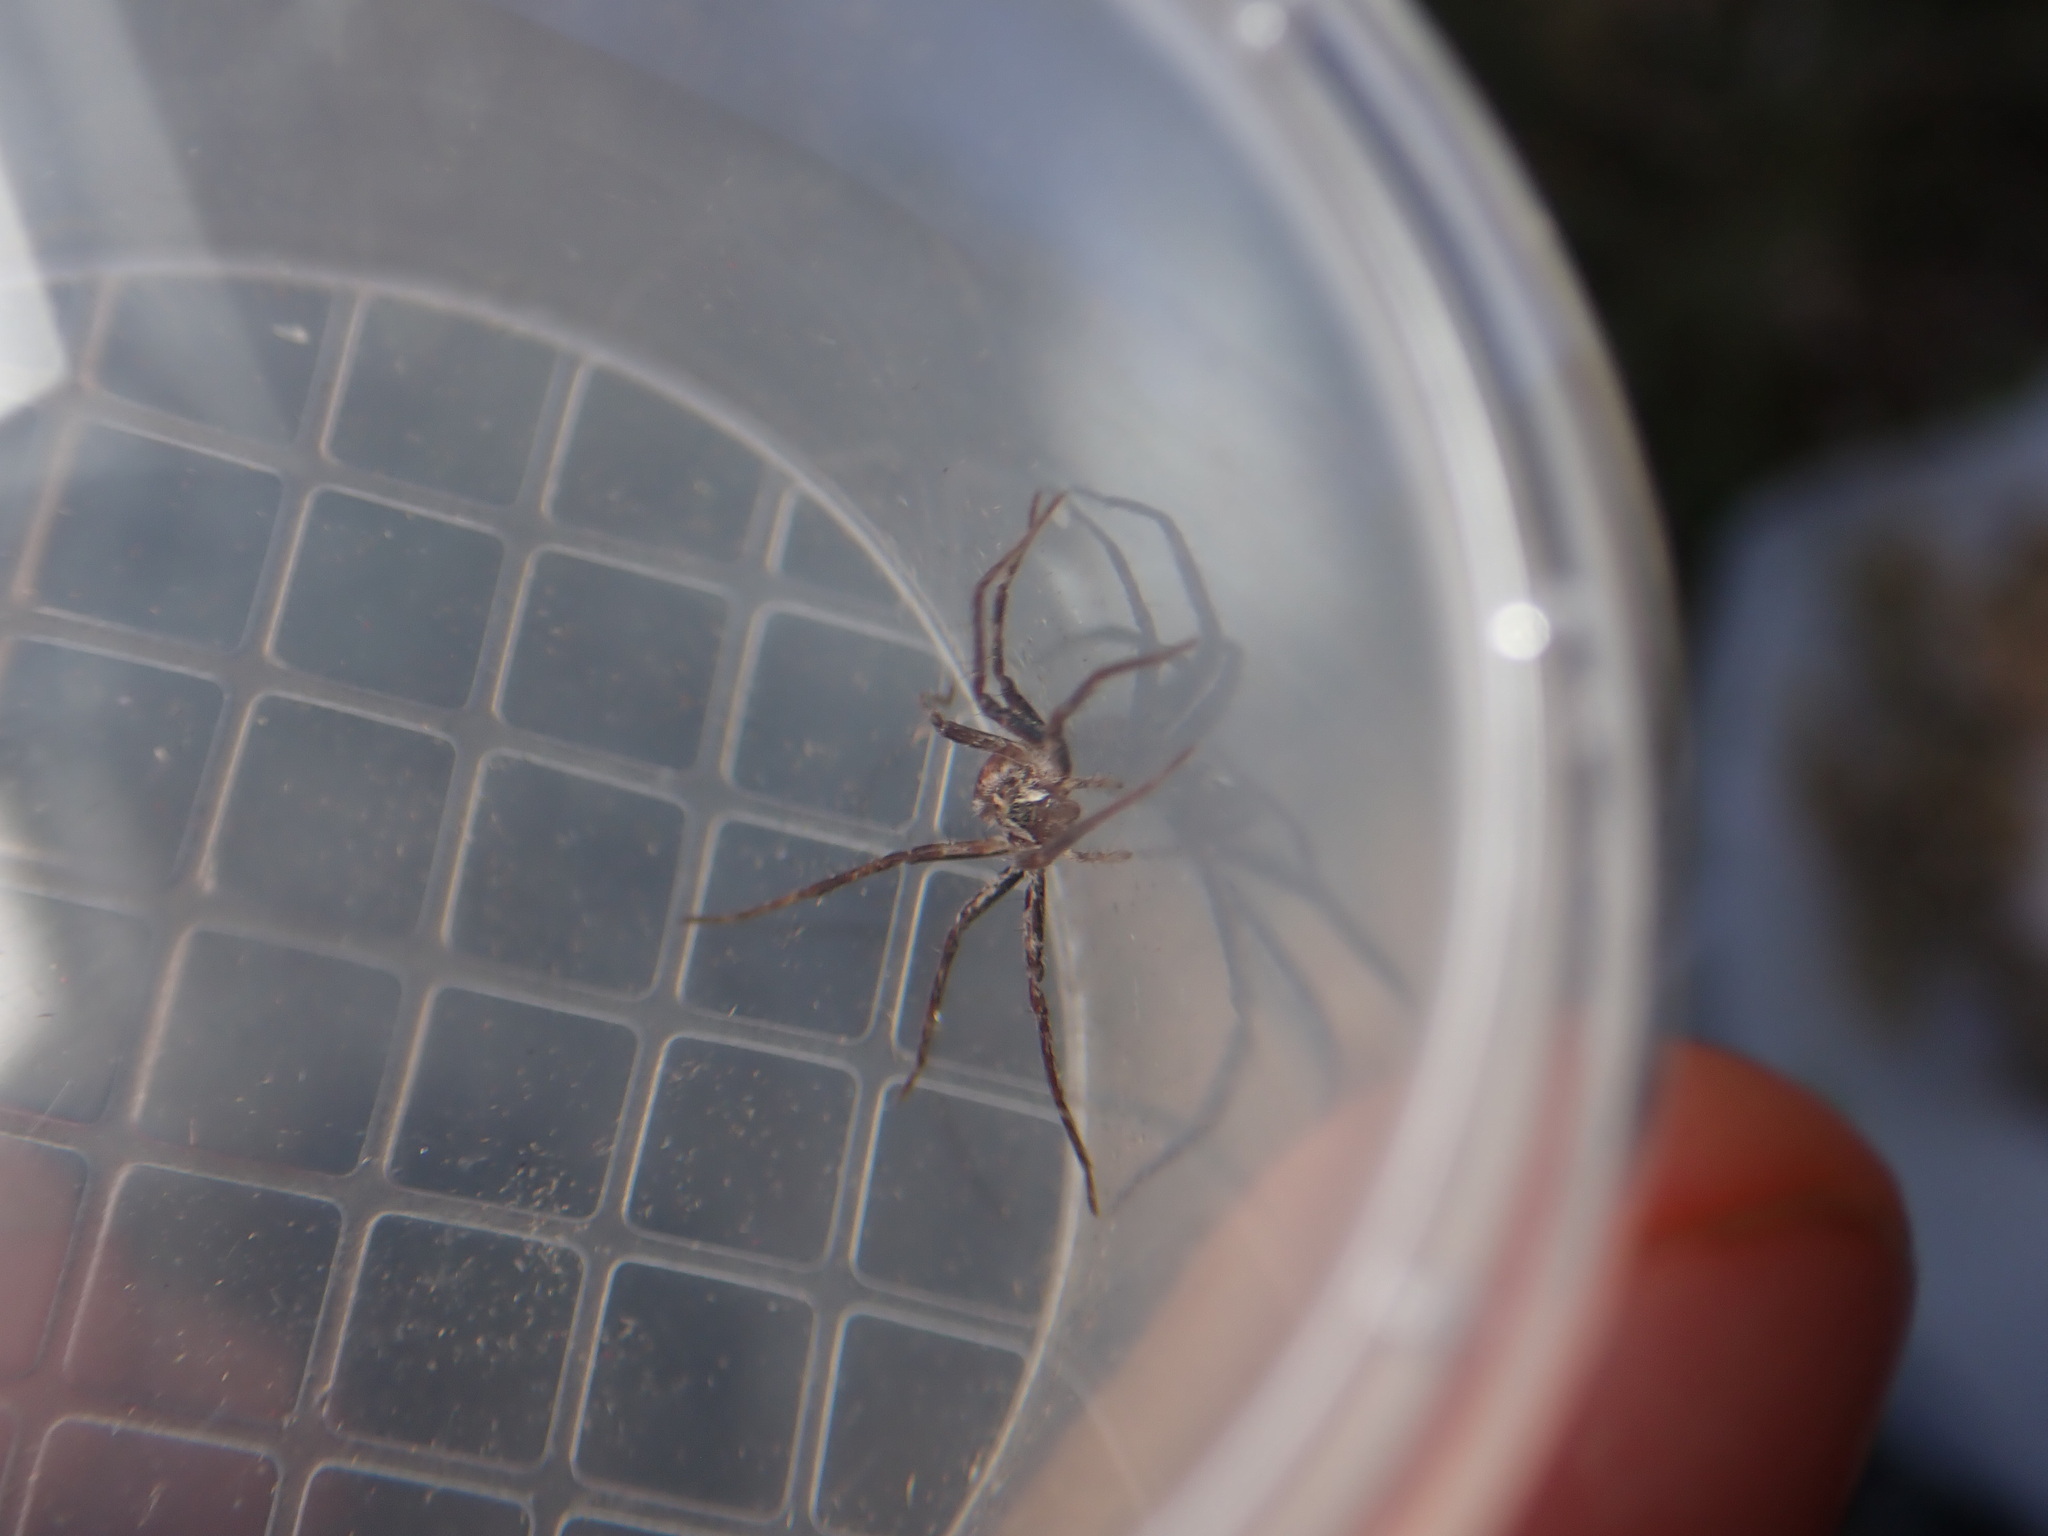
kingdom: Animalia
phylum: Arthropoda
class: Arachnida
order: Araneae
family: Pisauridae
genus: Pisaura
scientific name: Pisaura
